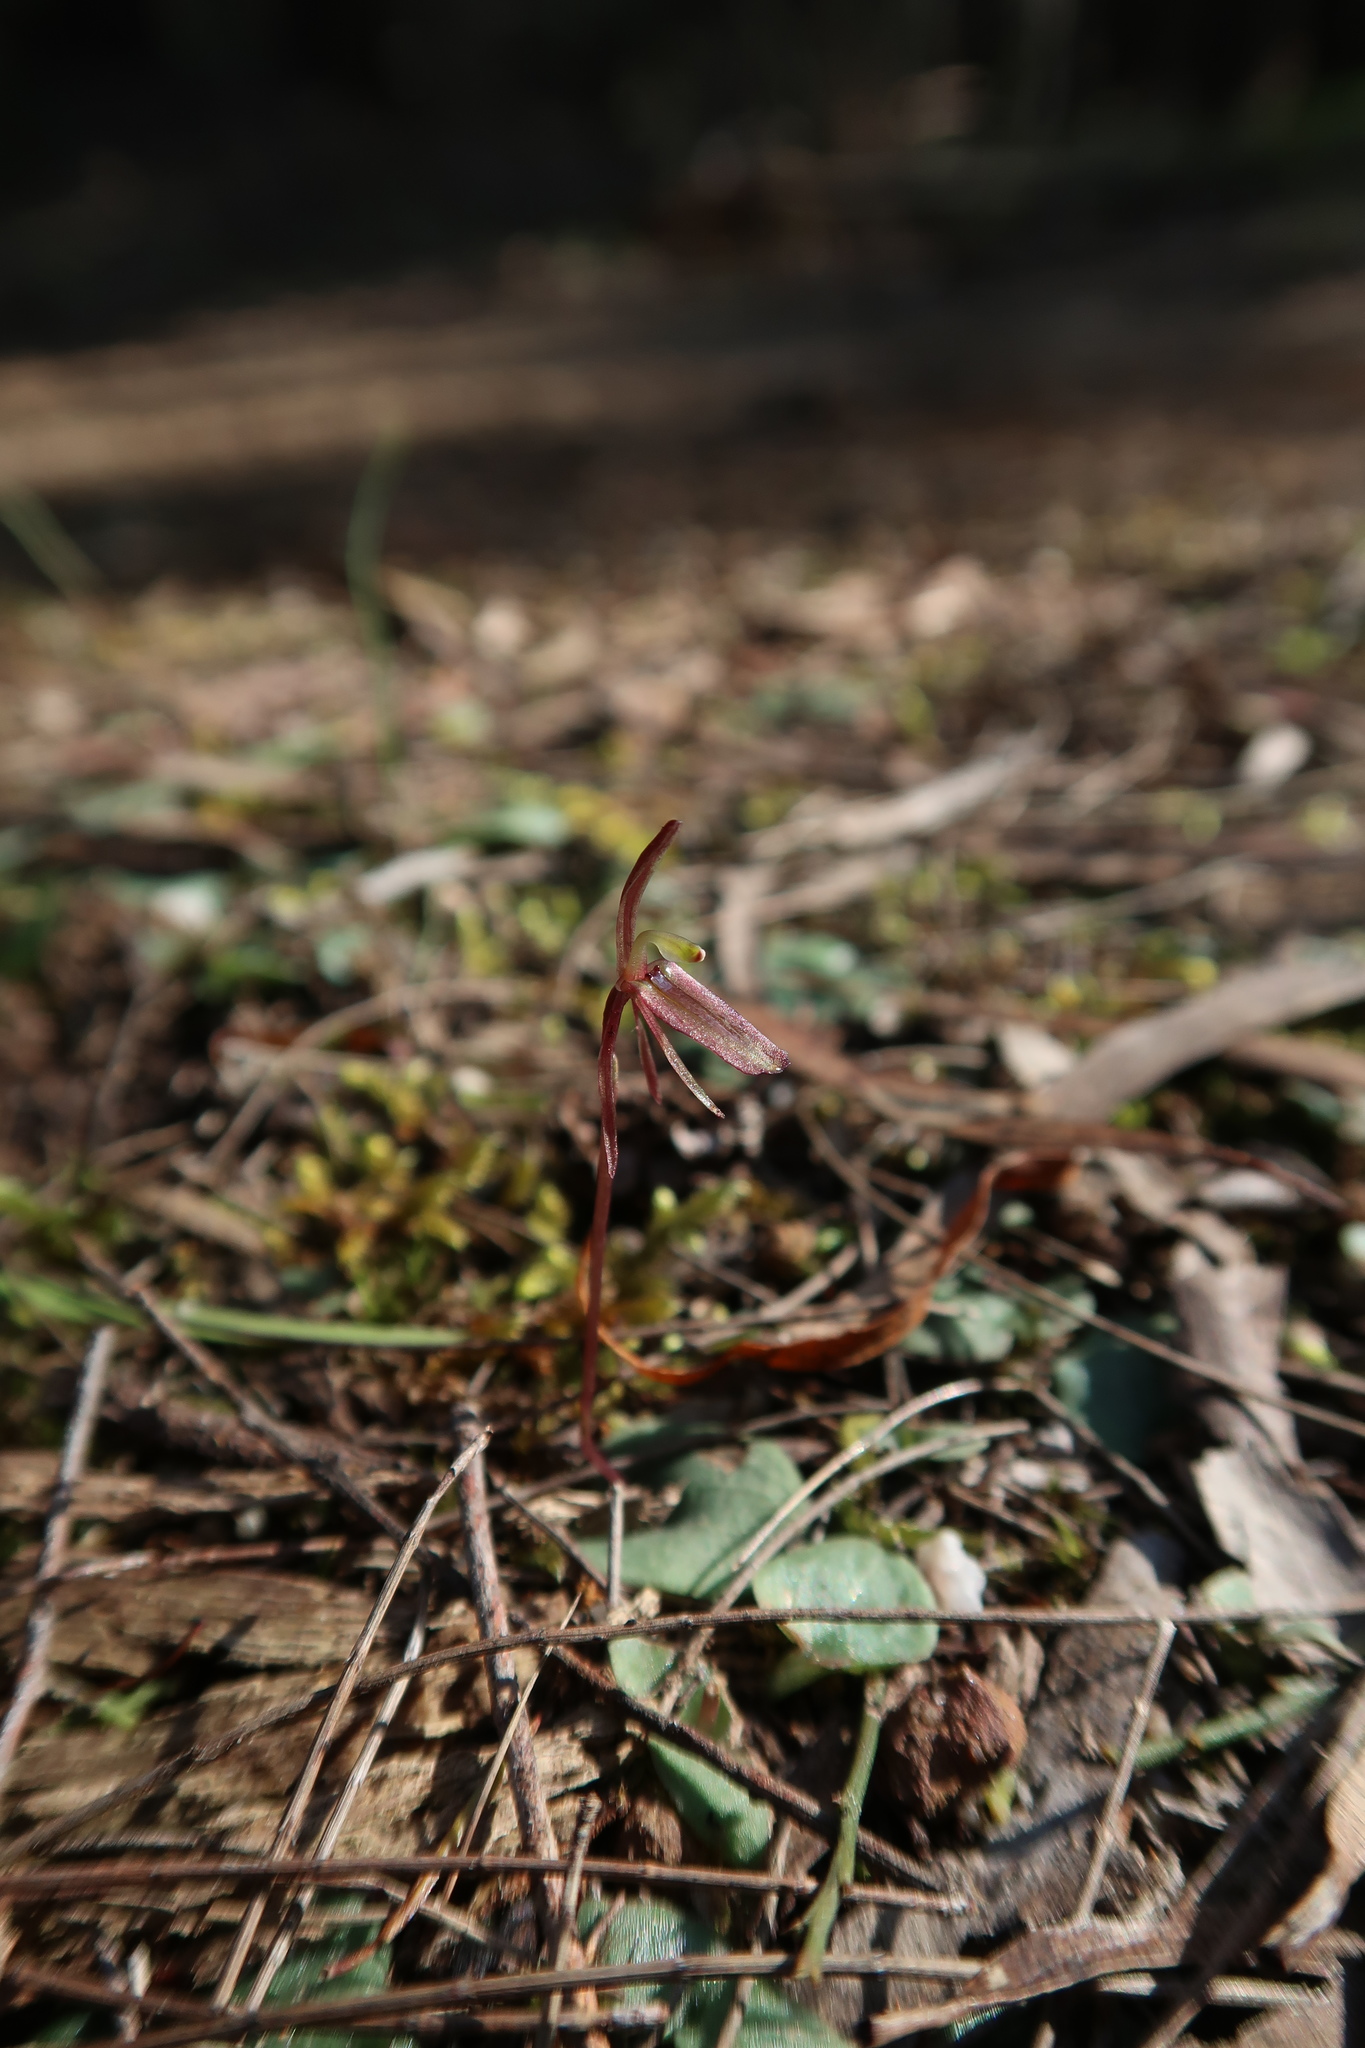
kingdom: Plantae
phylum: Tracheophyta
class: Liliopsida
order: Asparagales
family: Orchidaceae
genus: Cyrtostylis
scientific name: Cyrtostylis reniformis
